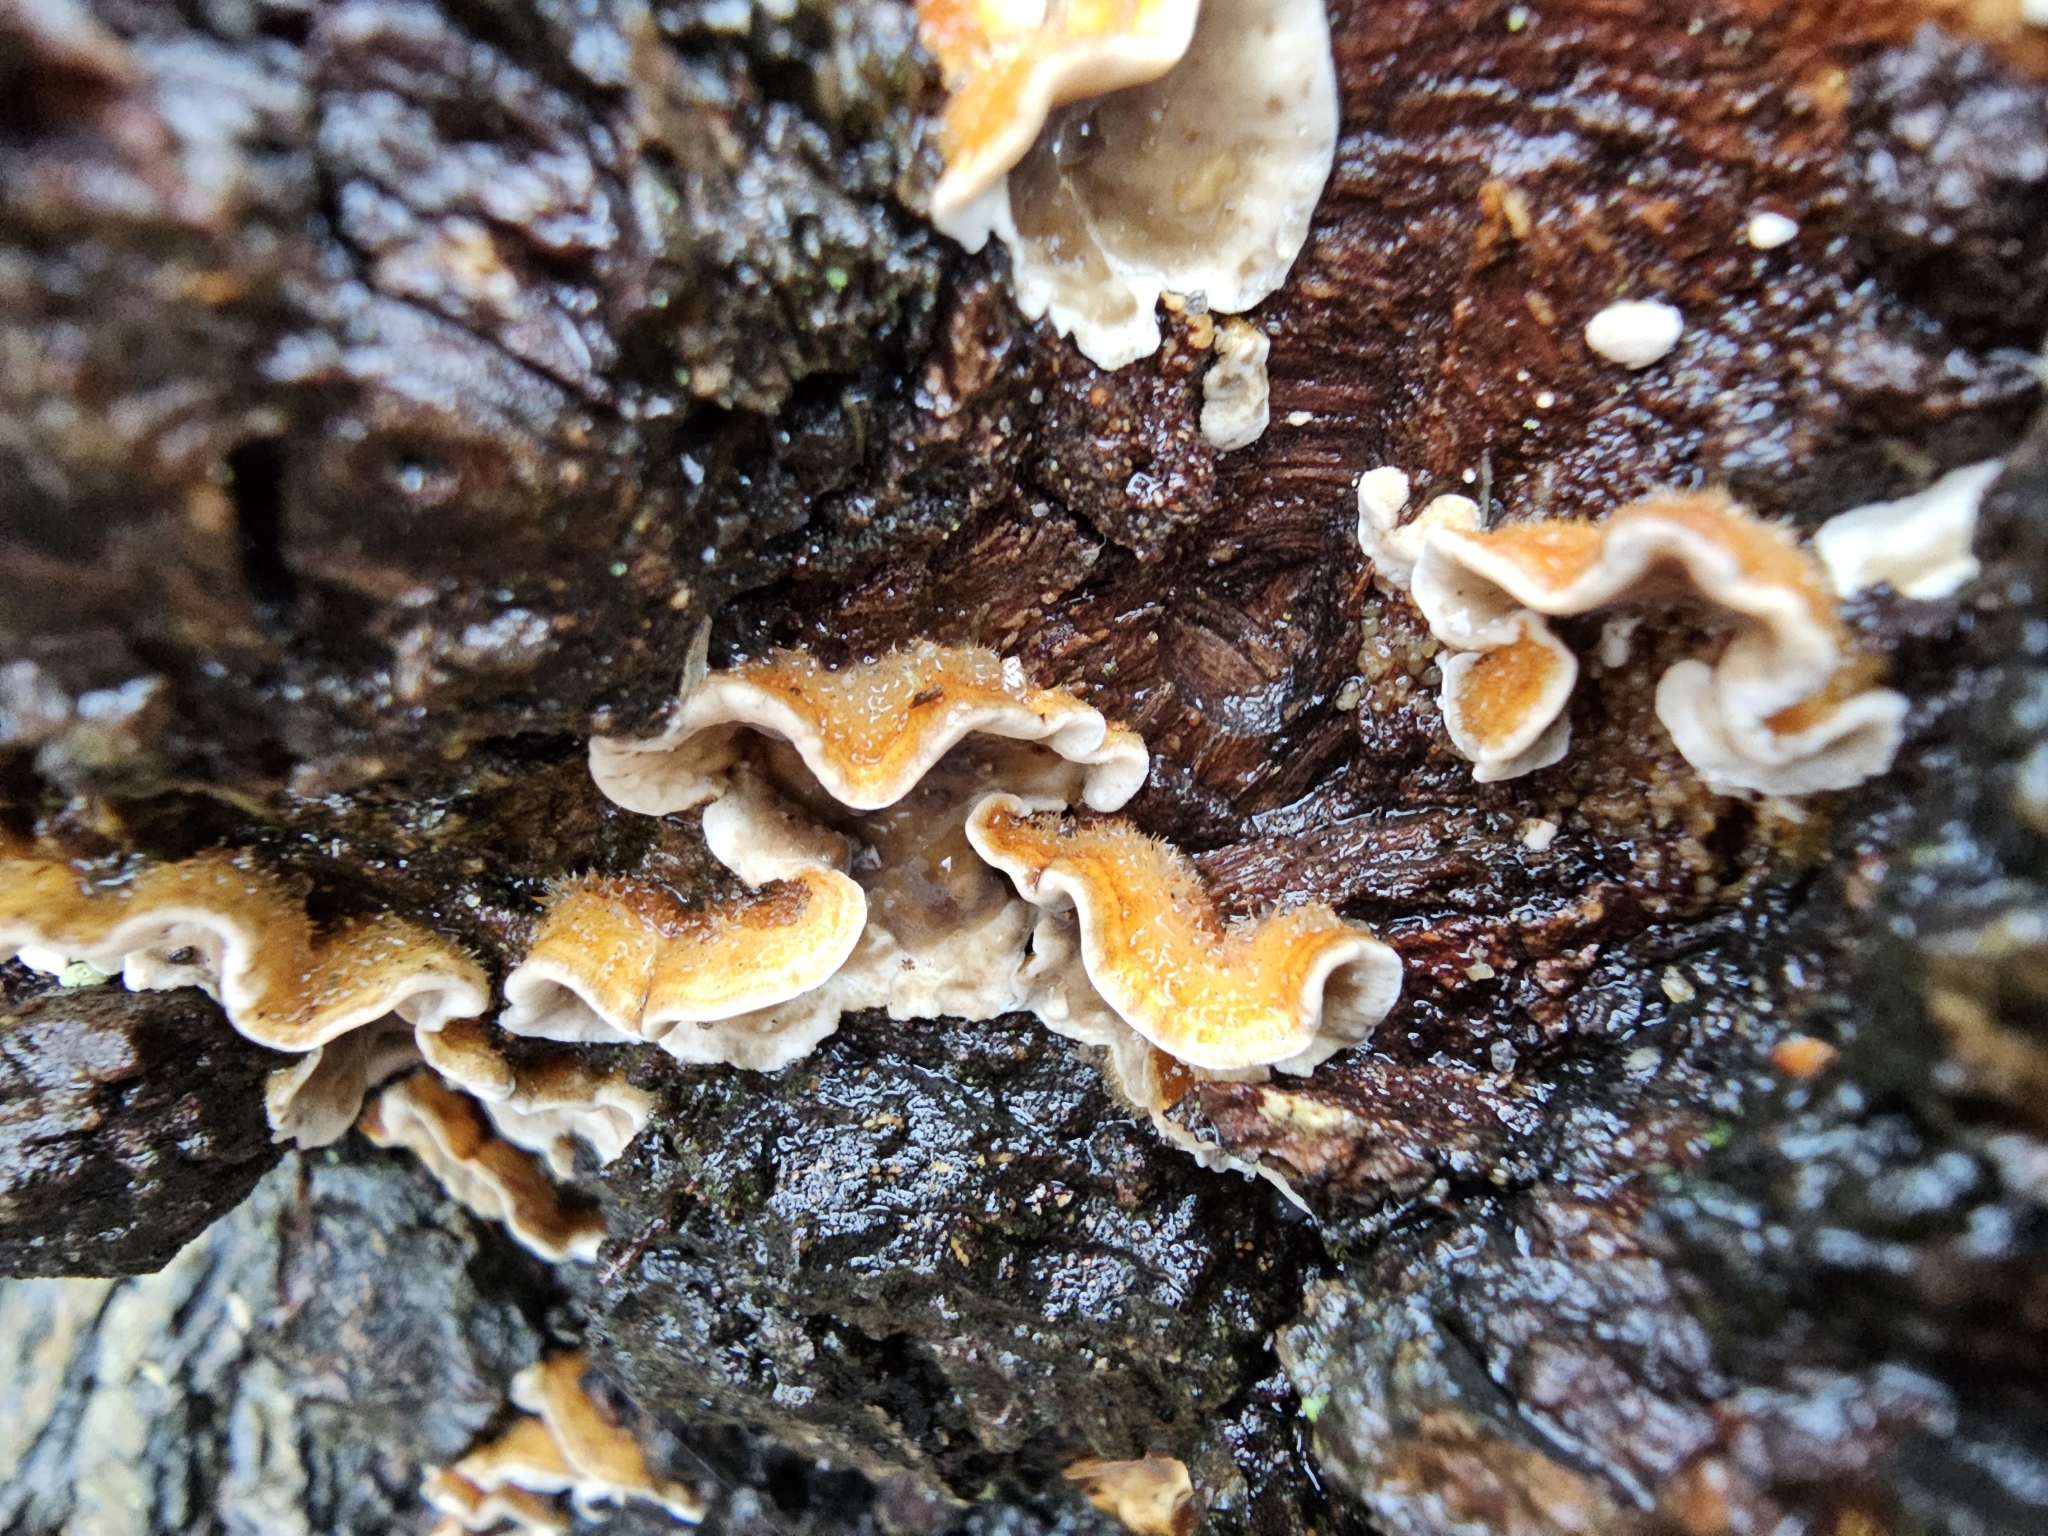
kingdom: Fungi
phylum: Basidiomycota
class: Agaricomycetes
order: Russulales
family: Stereaceae
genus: Stereum
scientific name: Stereum hirsutum
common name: Hairy curtain crust
